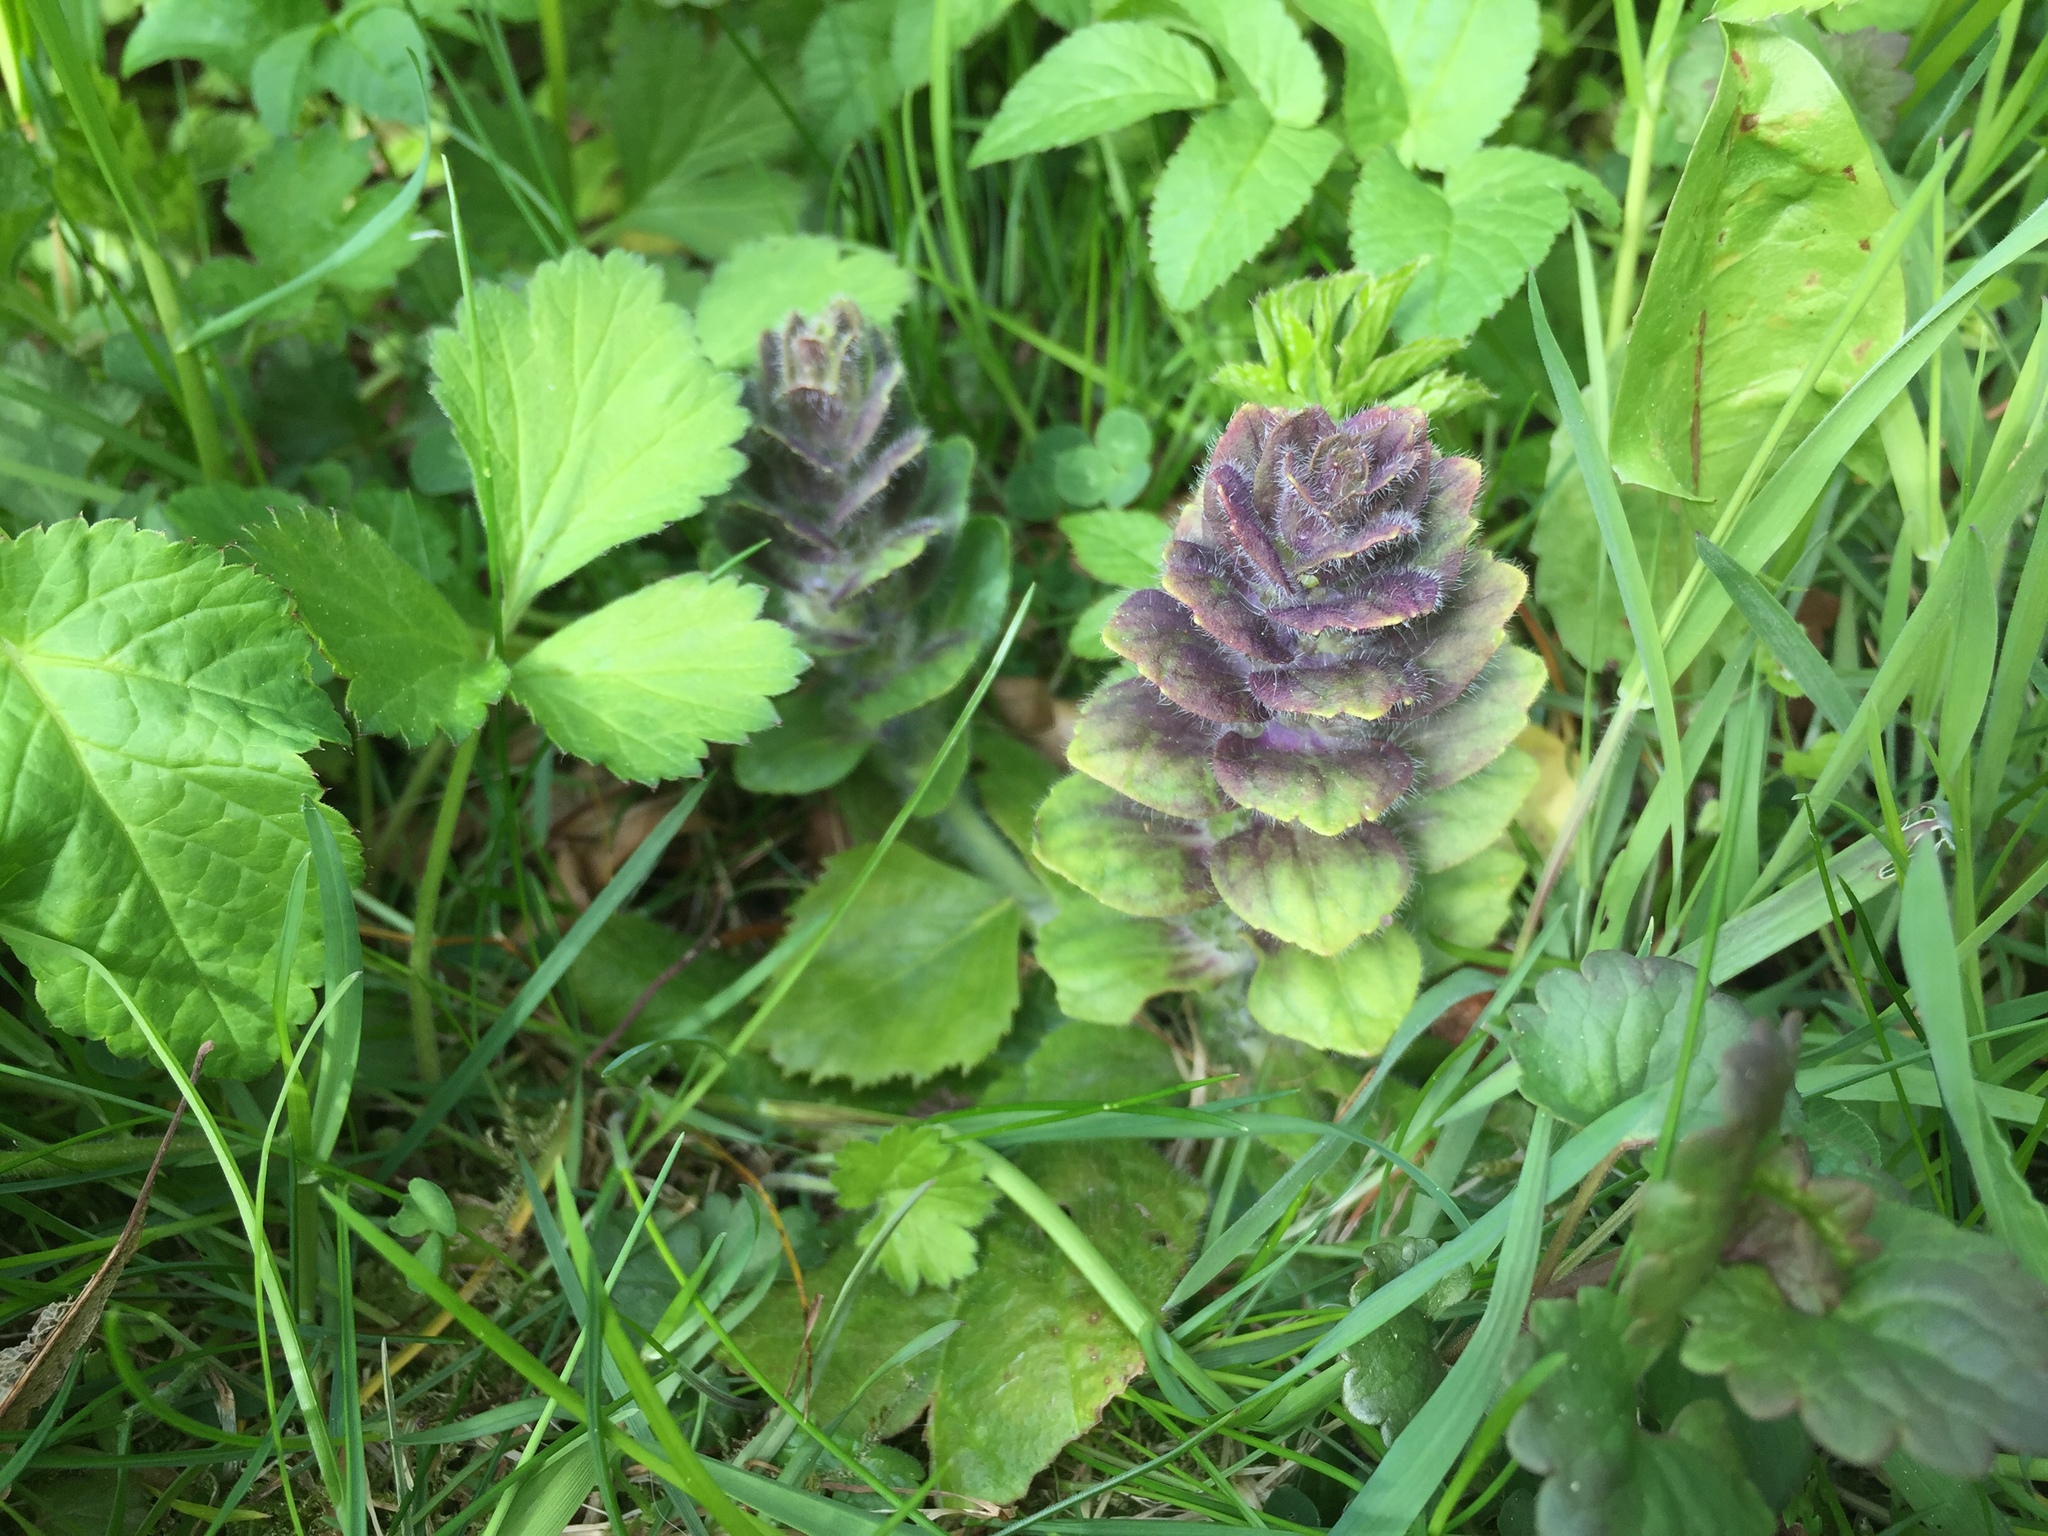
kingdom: Plantae
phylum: Tracheophyta
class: Magnoliopsida
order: Lamiales
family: Lamiaceae
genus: Ajuga
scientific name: Ajuga pyramidalis
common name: Pyramid bugle
